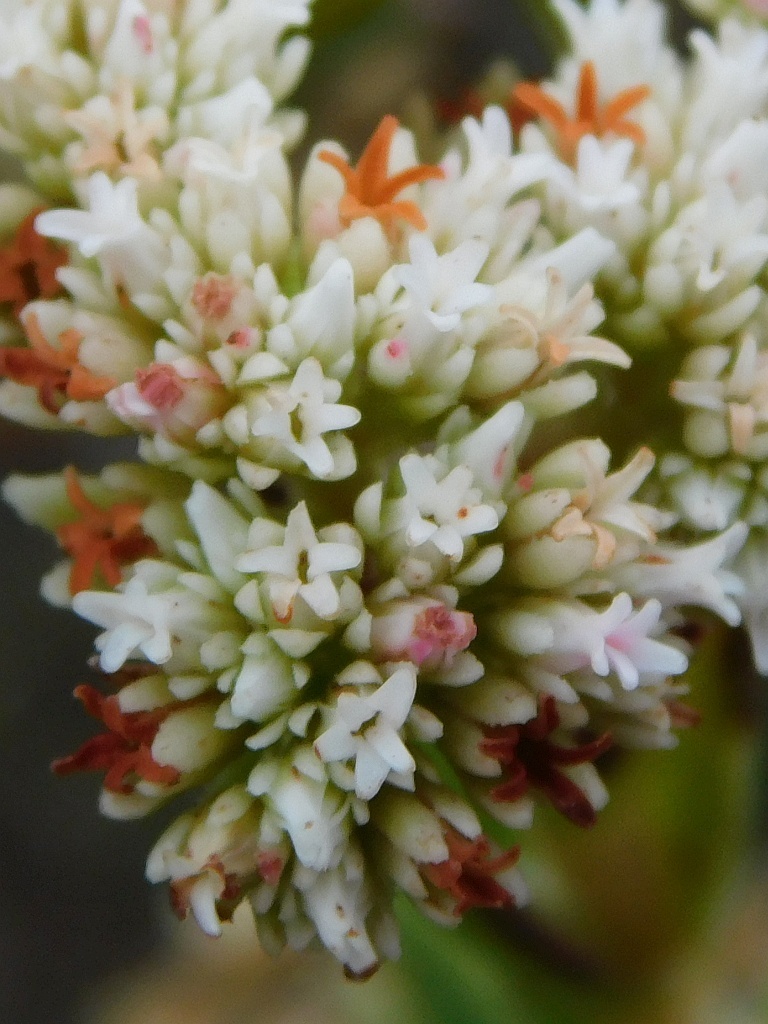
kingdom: Plantae
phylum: Tracheophyta
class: Magnoliopsida
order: Saxifragales
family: Crassulaceae
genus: Crassula
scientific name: Crassula subulata
